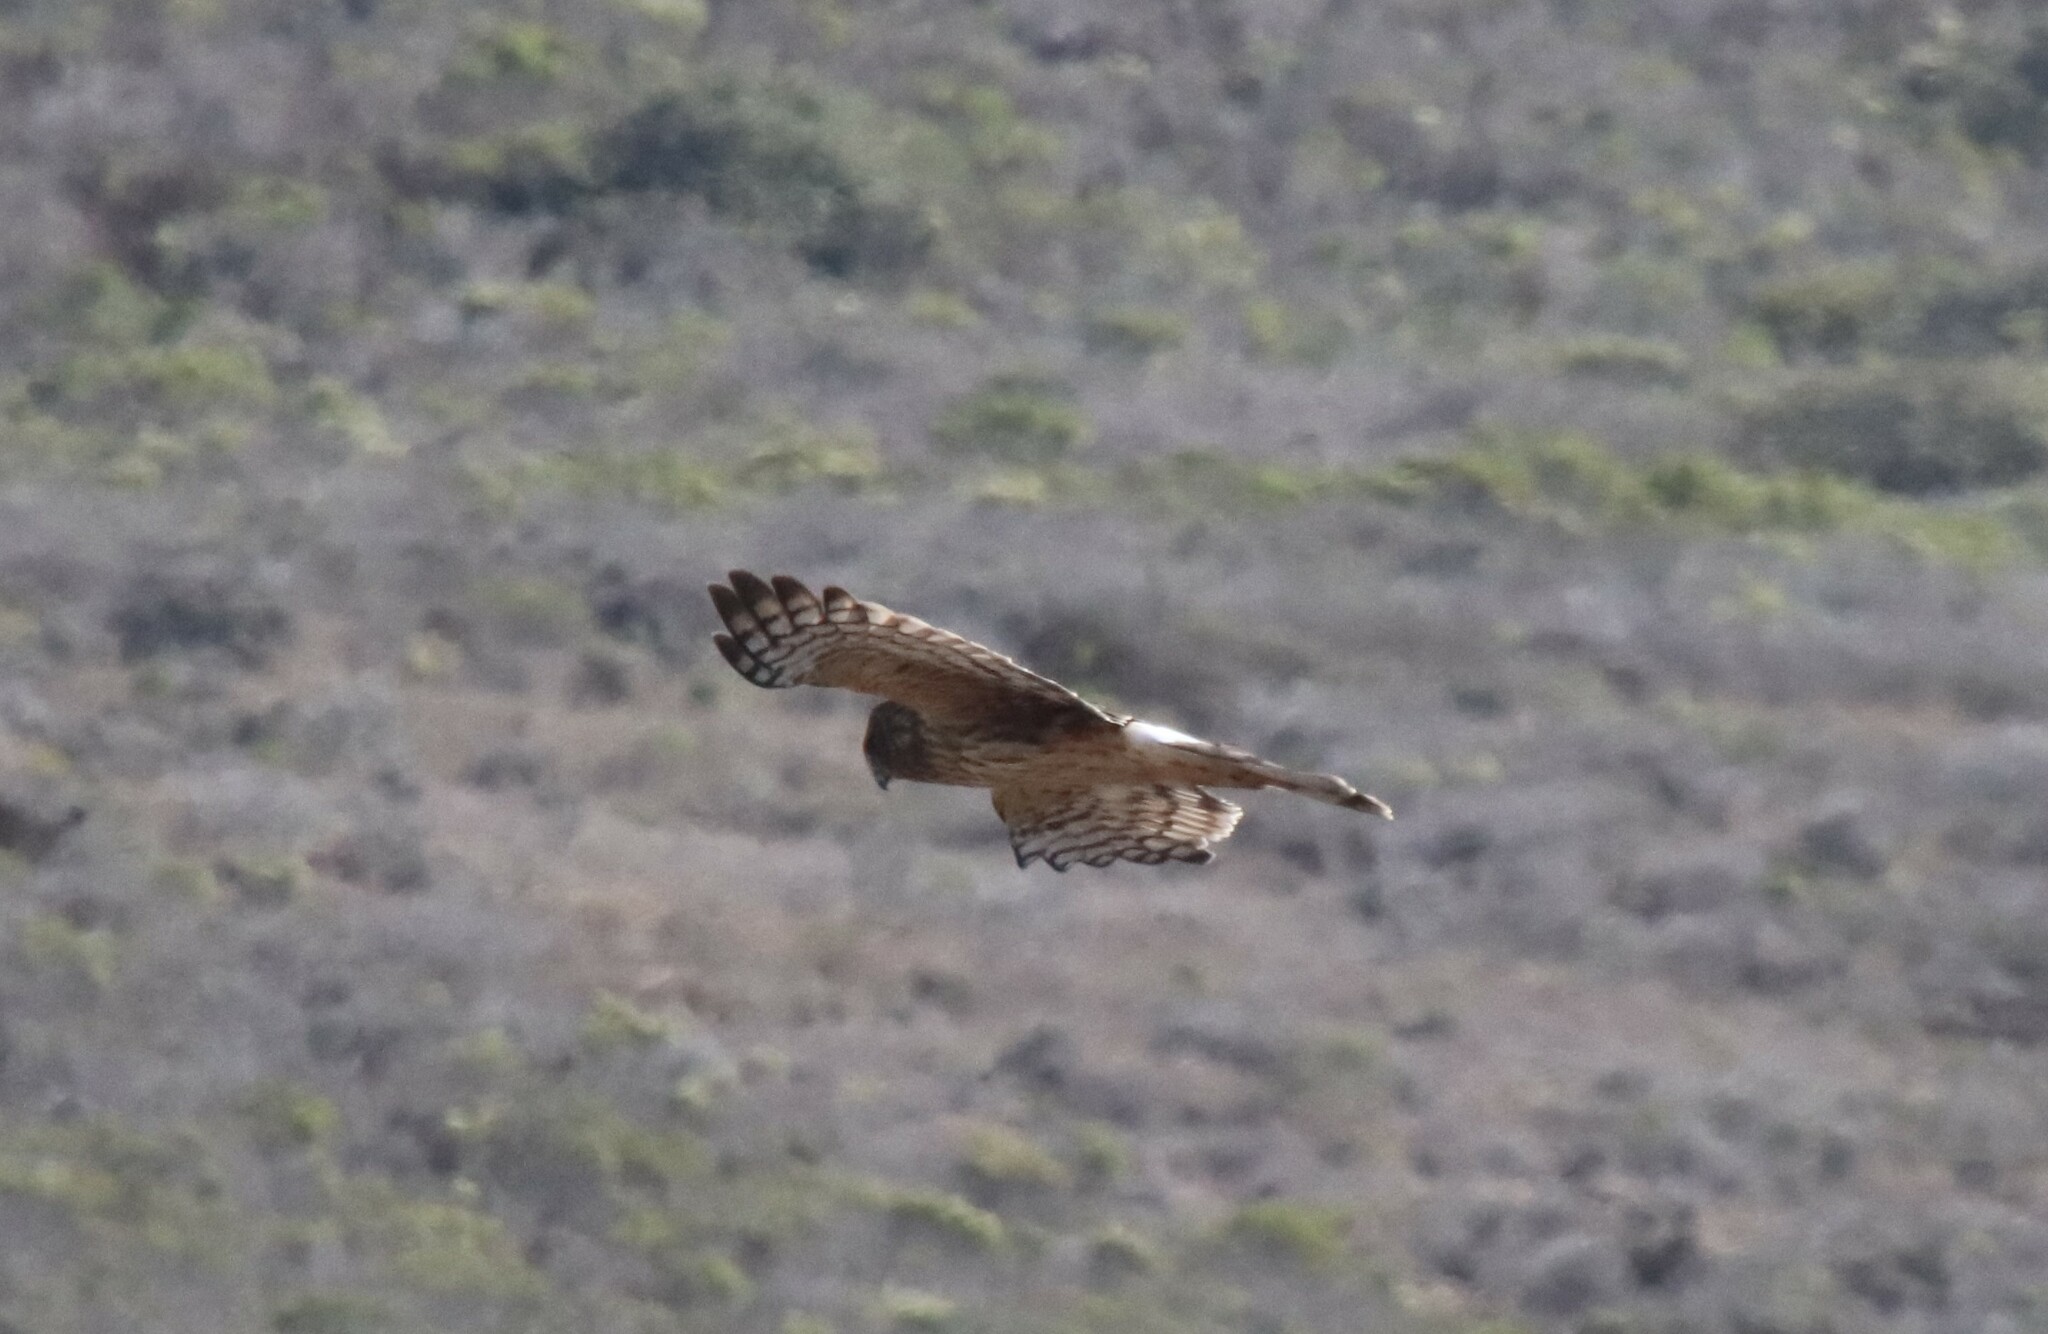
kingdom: Animalia
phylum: Chordata
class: Aves
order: Accipitriformes
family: Accipitridae
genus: Circus
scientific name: Circus cyaneus
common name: Hen harrier
